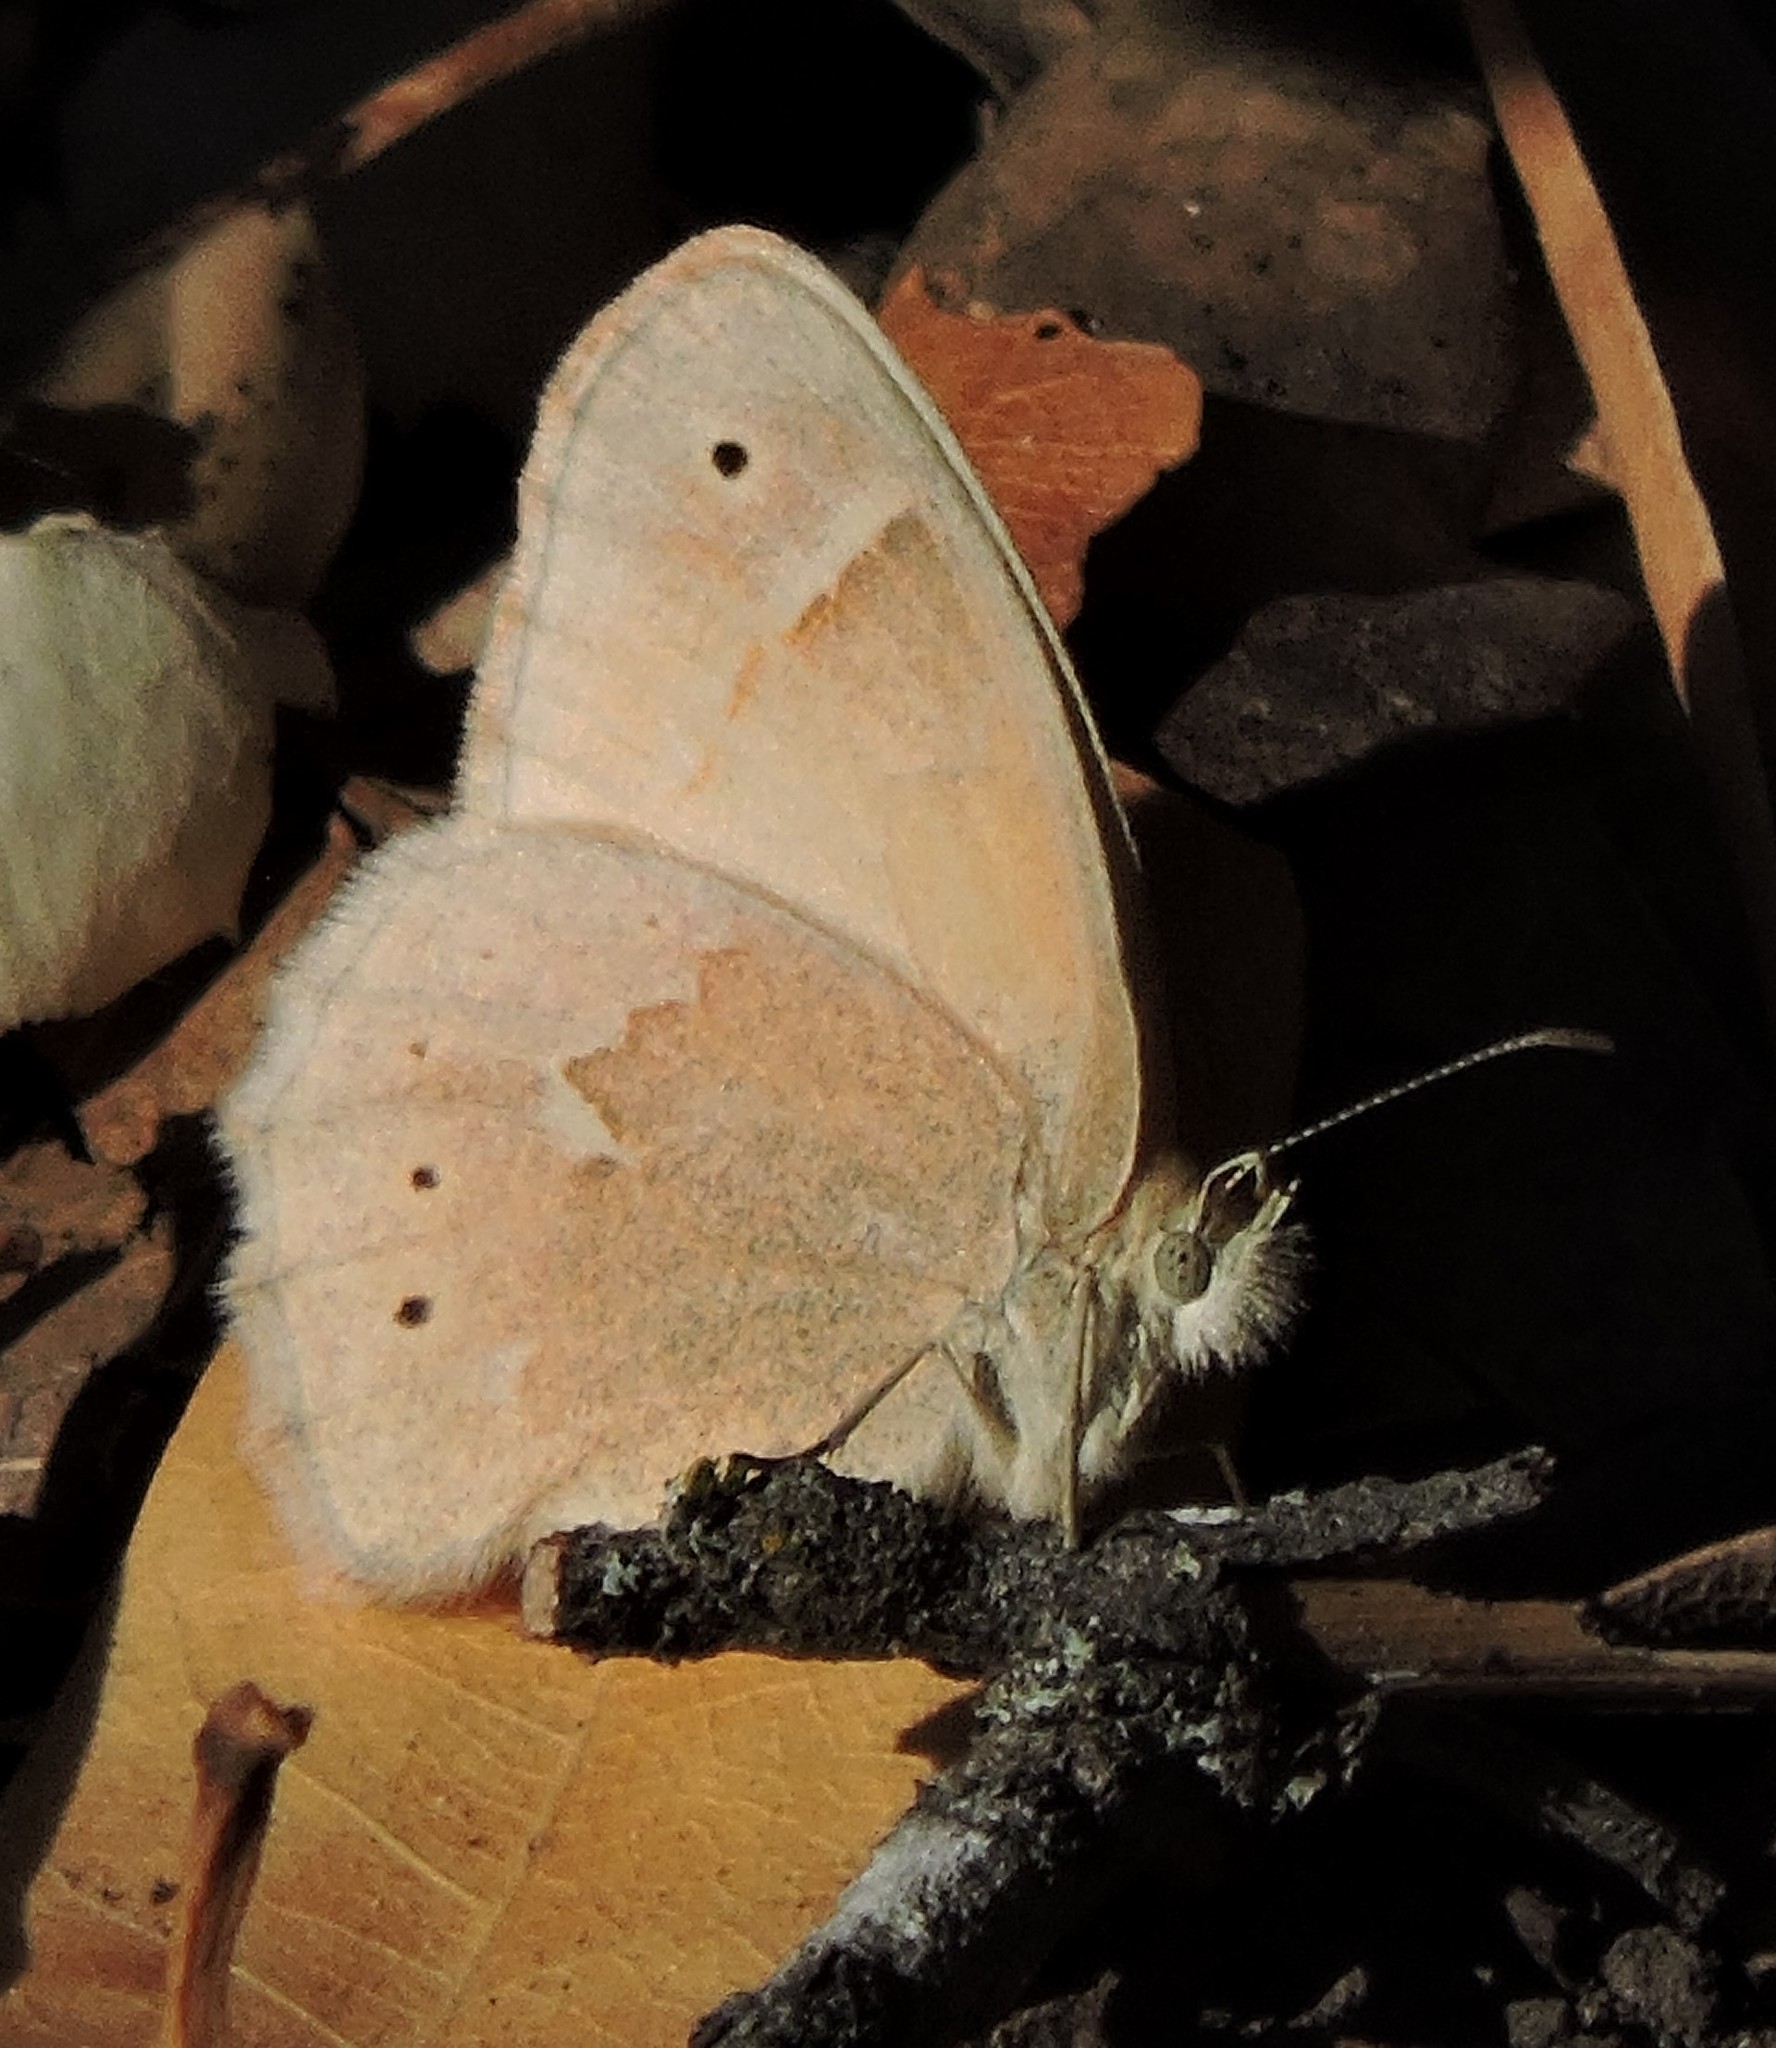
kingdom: Animalia
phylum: Arthropoda
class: Insecta
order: Lepidoptera
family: Nymphalidae
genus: Coenonympha
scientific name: Coenonympha california
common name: Common ringlet
